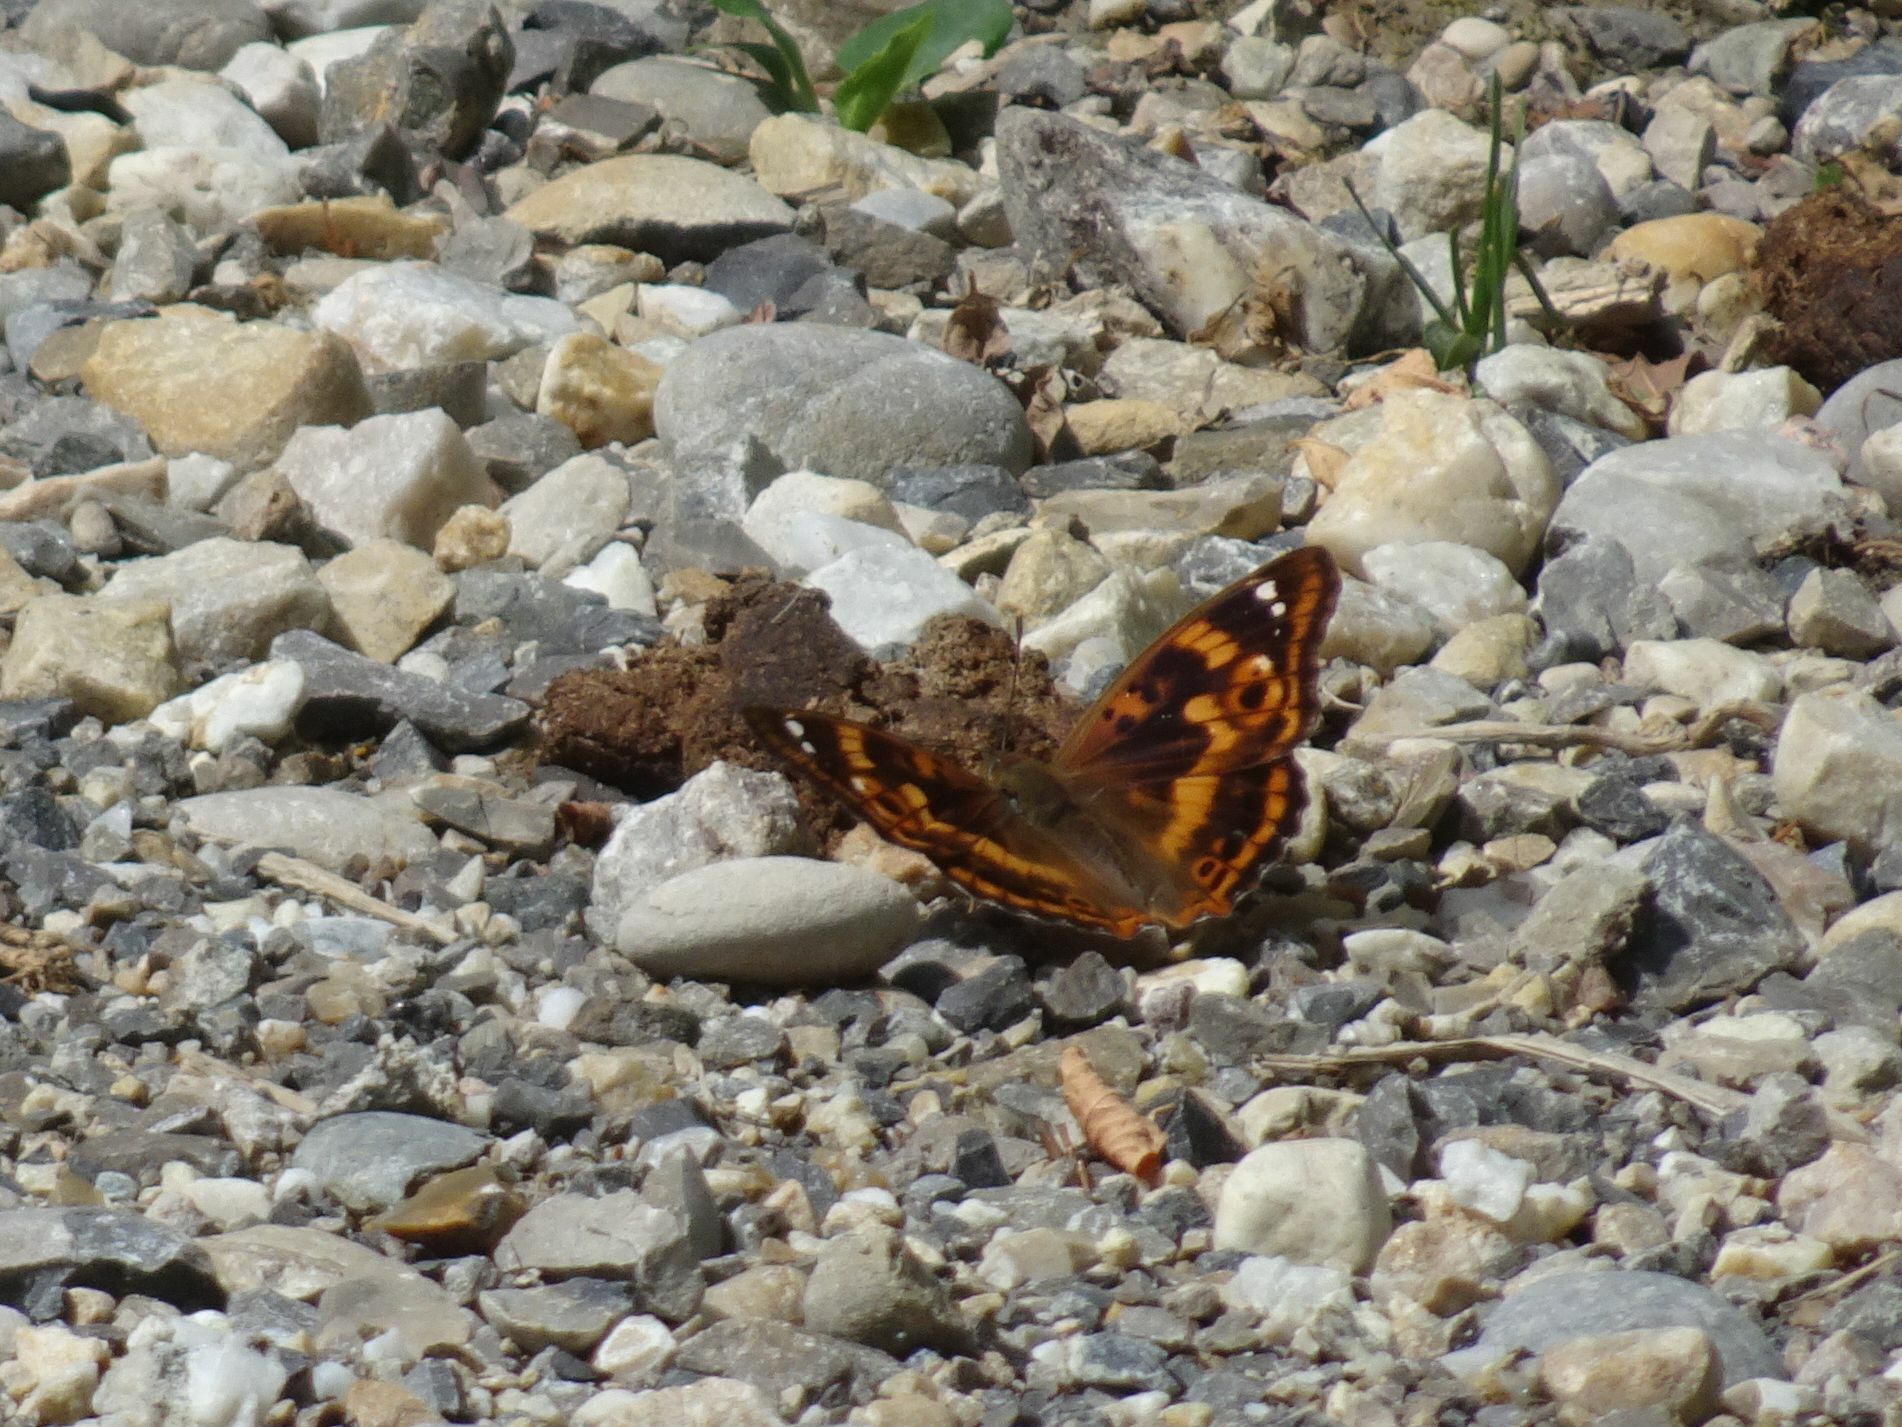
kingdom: Animalia
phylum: Arthropoda
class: Insecta
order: Lepidoptera
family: Nymphalidae
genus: Apatura
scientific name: Apatura ilia
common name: Lesser purple emperor
